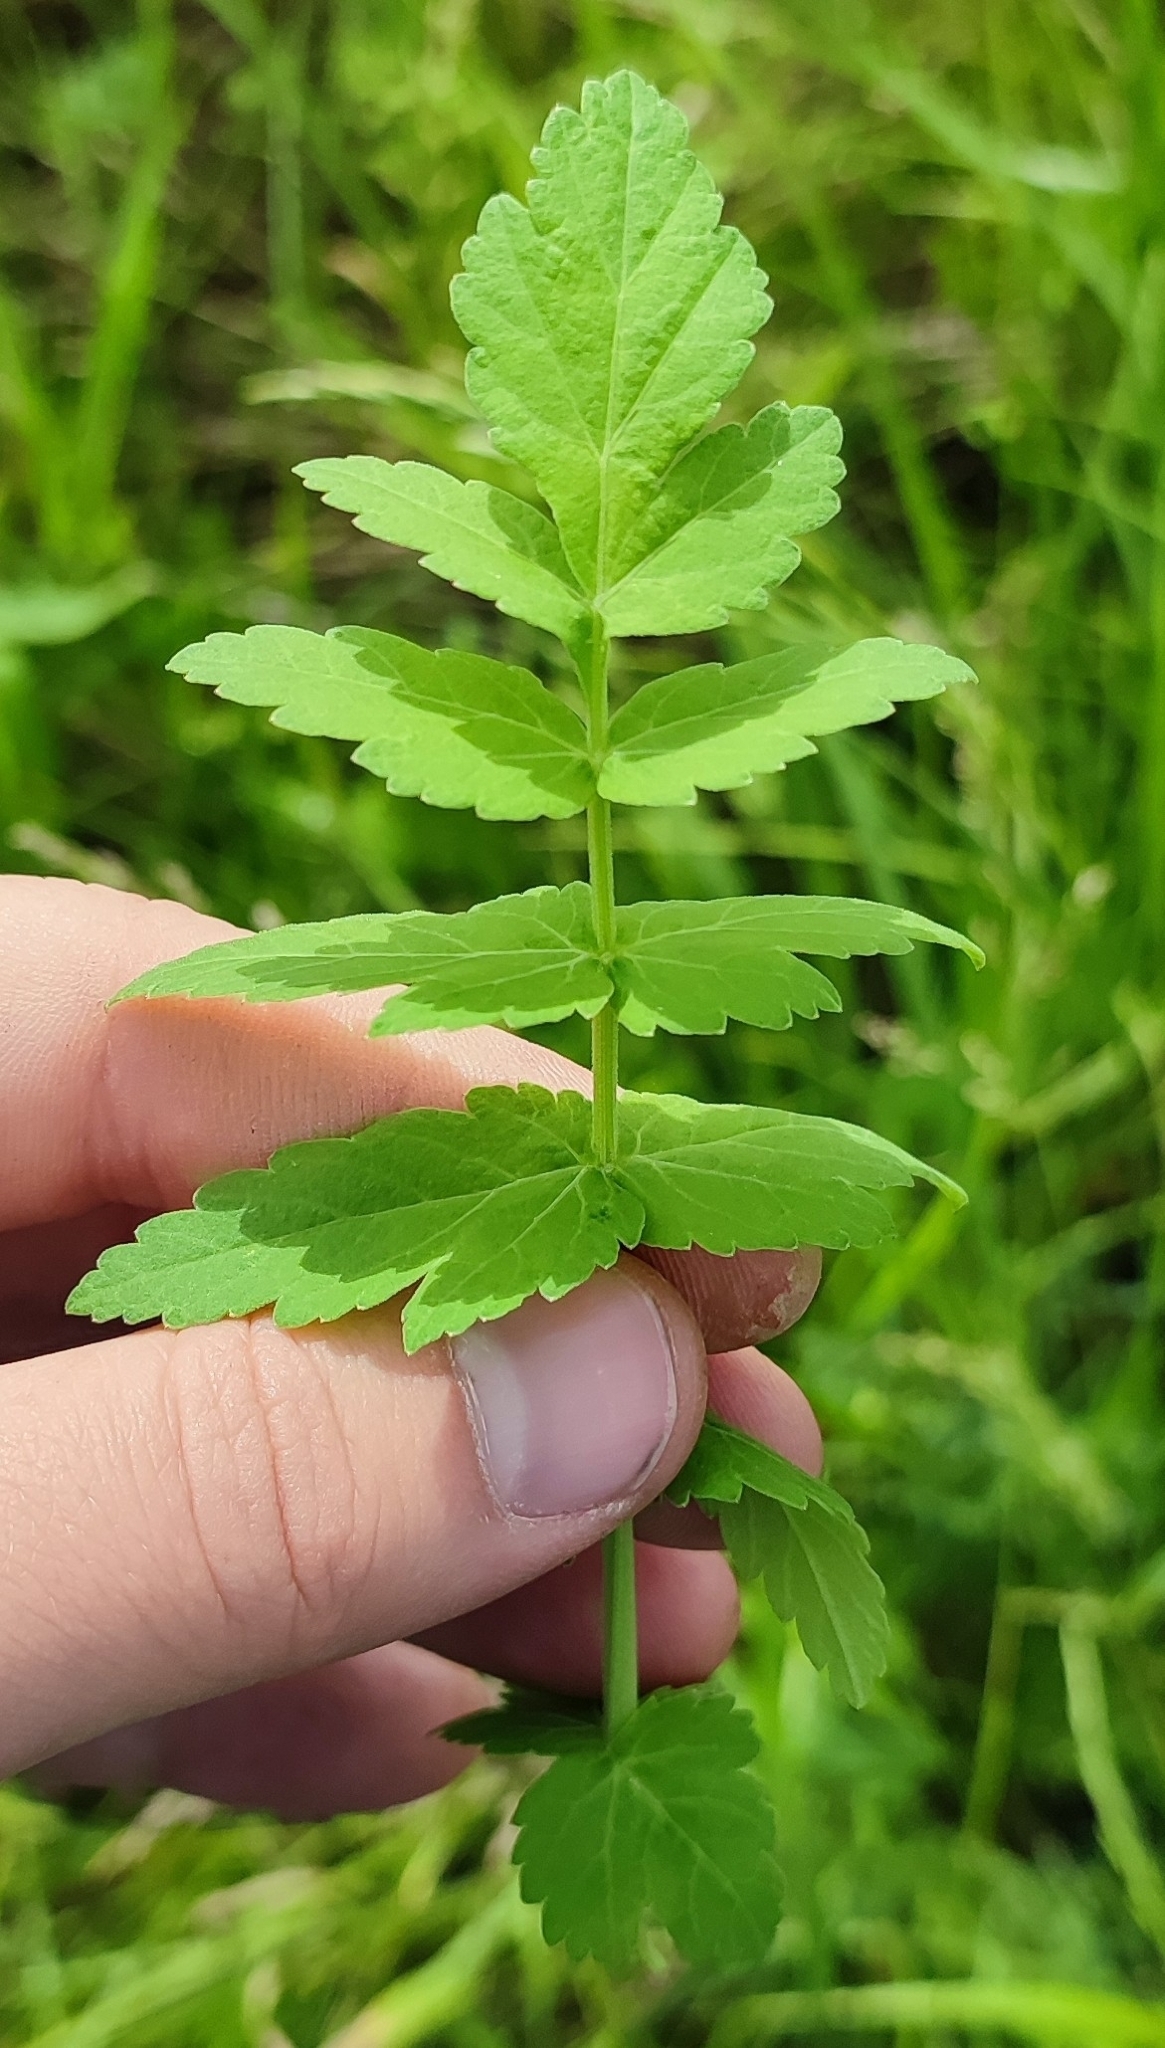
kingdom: Plantae
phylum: Tracheophyta
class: Magnoliopsida
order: Apiales
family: Apiaceae
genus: Pastinaca
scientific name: Pastinaca sativa
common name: Wild parsnip
